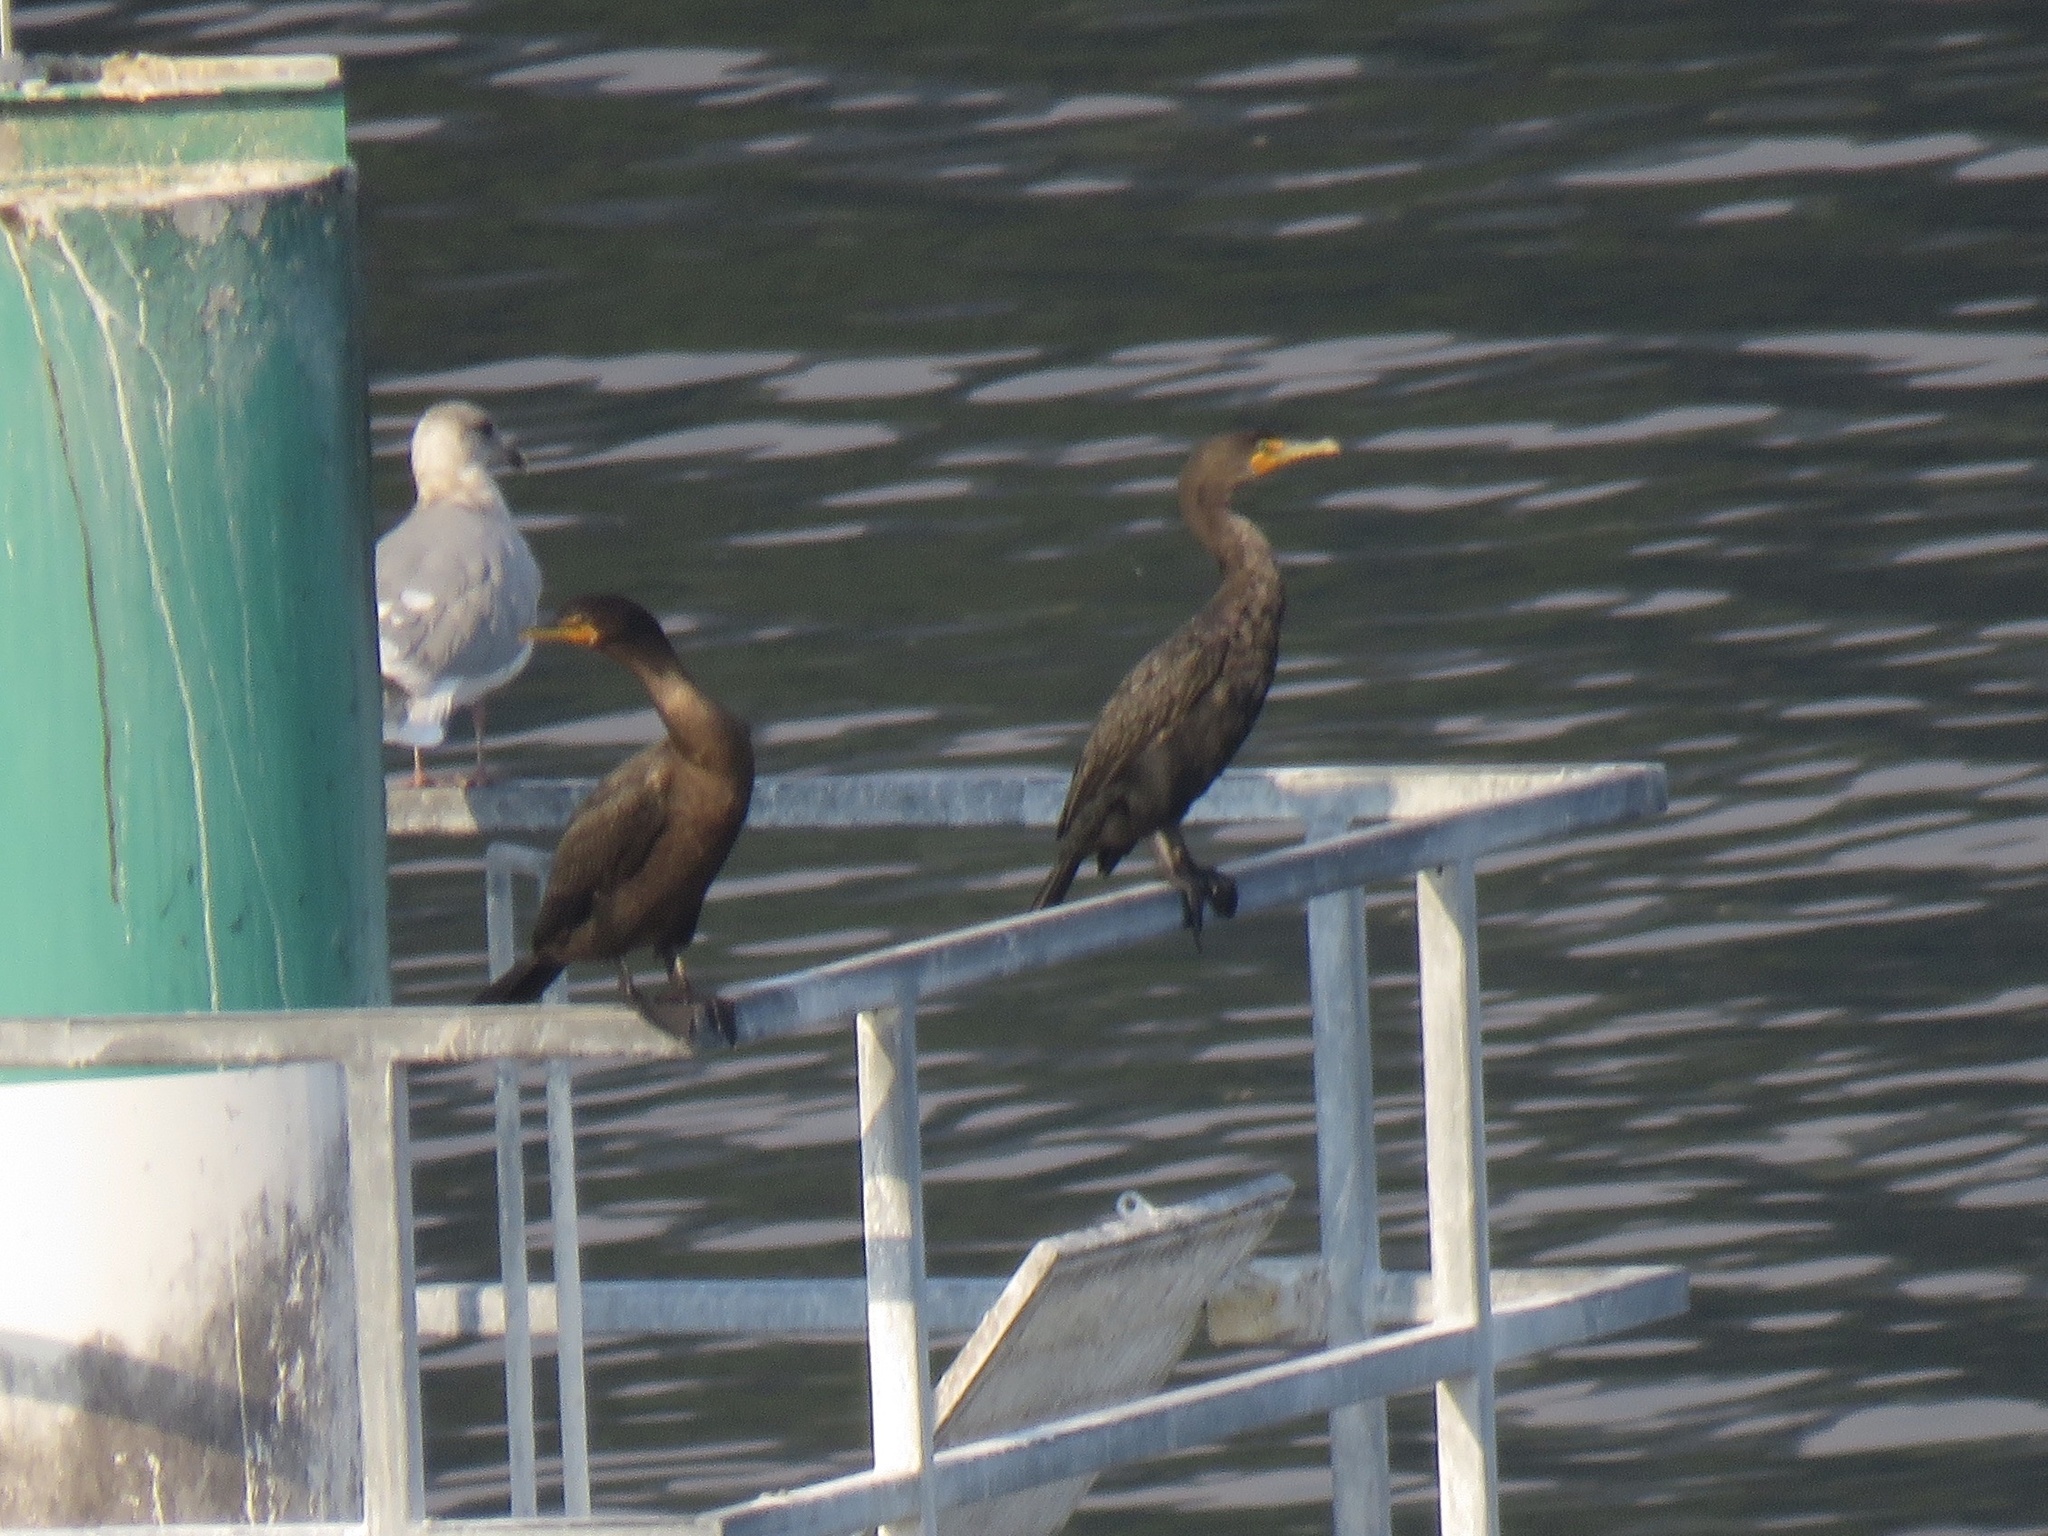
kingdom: Animalia
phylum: Chordata
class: Aves
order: Suliformes
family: Phalacrocoracidae
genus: Phalacrocorax
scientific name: Phalacrocorax auritus
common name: Double-crested cormorant
